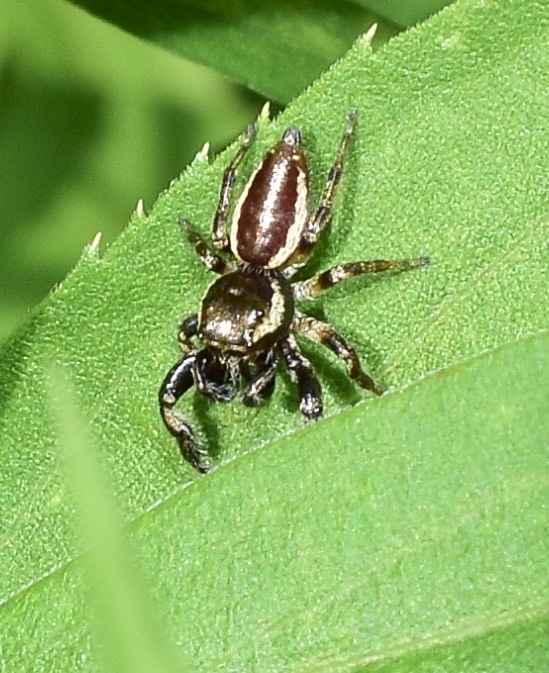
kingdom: Animalia
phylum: Arthropoda
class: Arachnida
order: Araneae
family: Salticidae
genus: Eris
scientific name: Eris militaris
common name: Bronze jumper
